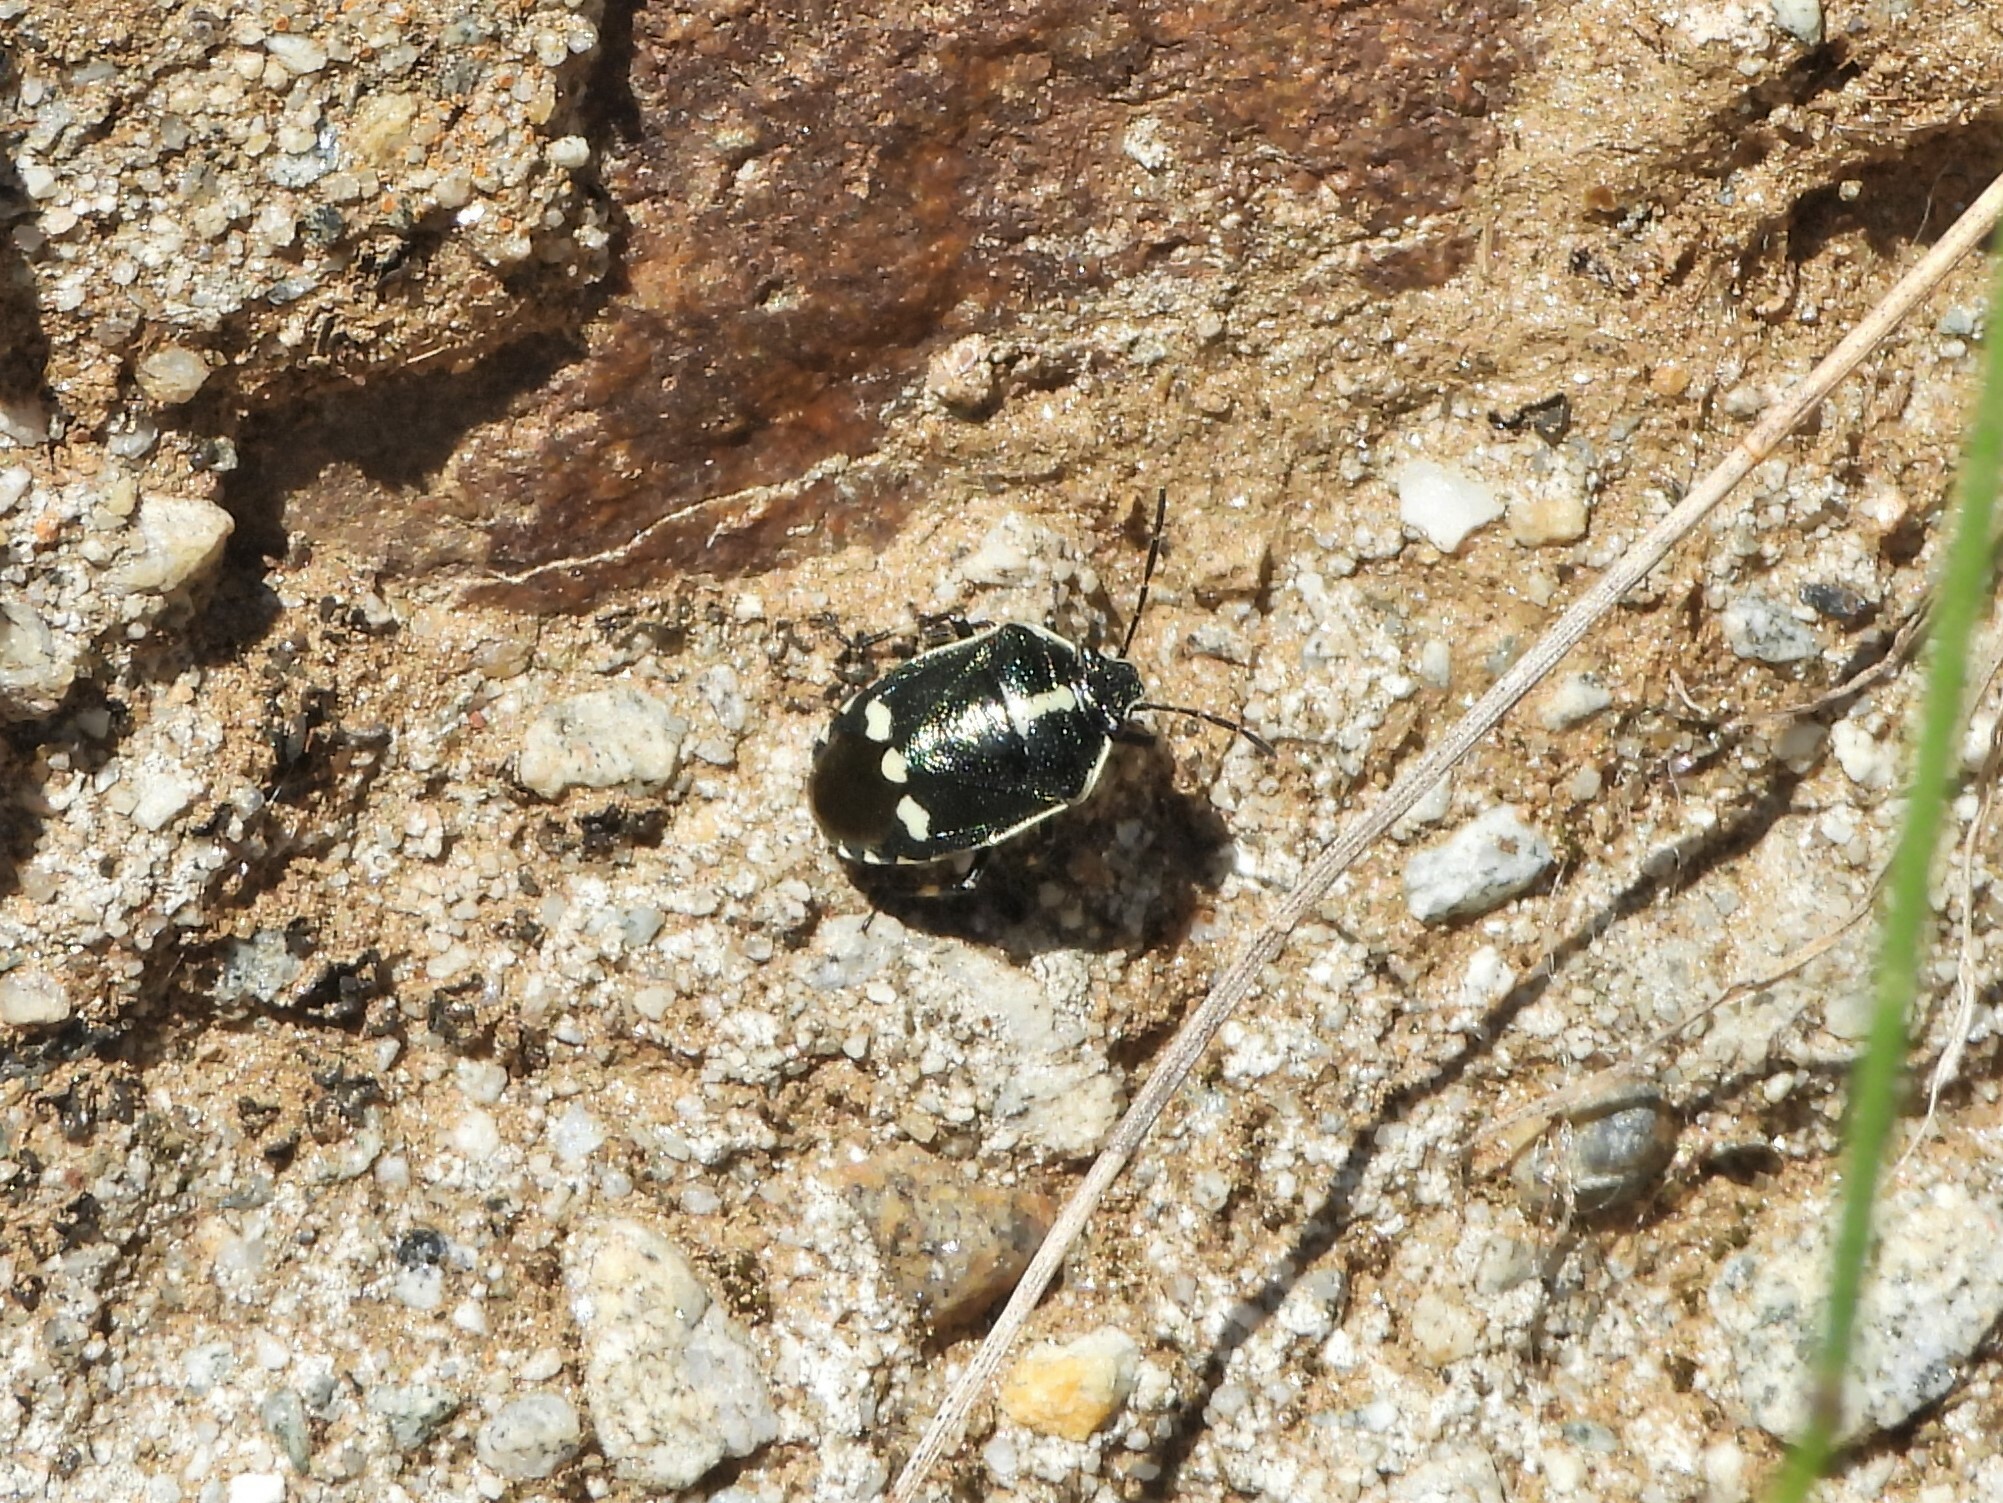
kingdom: Animalia
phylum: Arthropoda
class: Insecta
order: Hemiptera
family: Pentatomidae
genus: Eurydema
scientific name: Eurydema oleracea
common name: Cabbage bug
